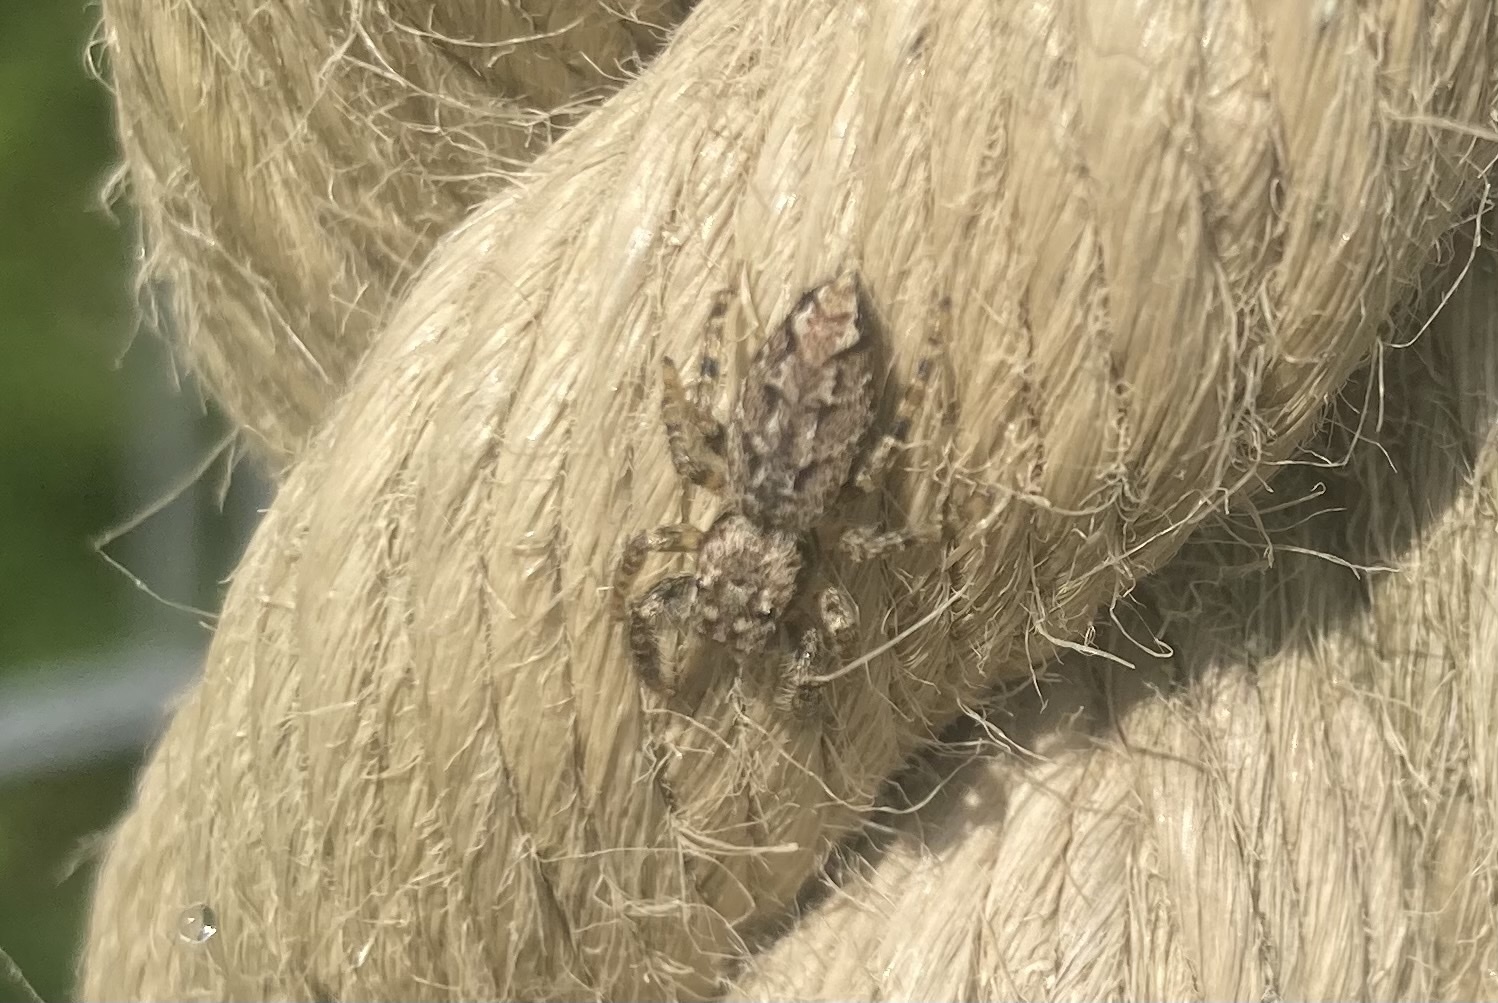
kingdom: Animalia
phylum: Arthropoda
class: Arachnida
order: Araneae
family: Salticidae
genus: Marpissa
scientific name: Marpissa muscosa
